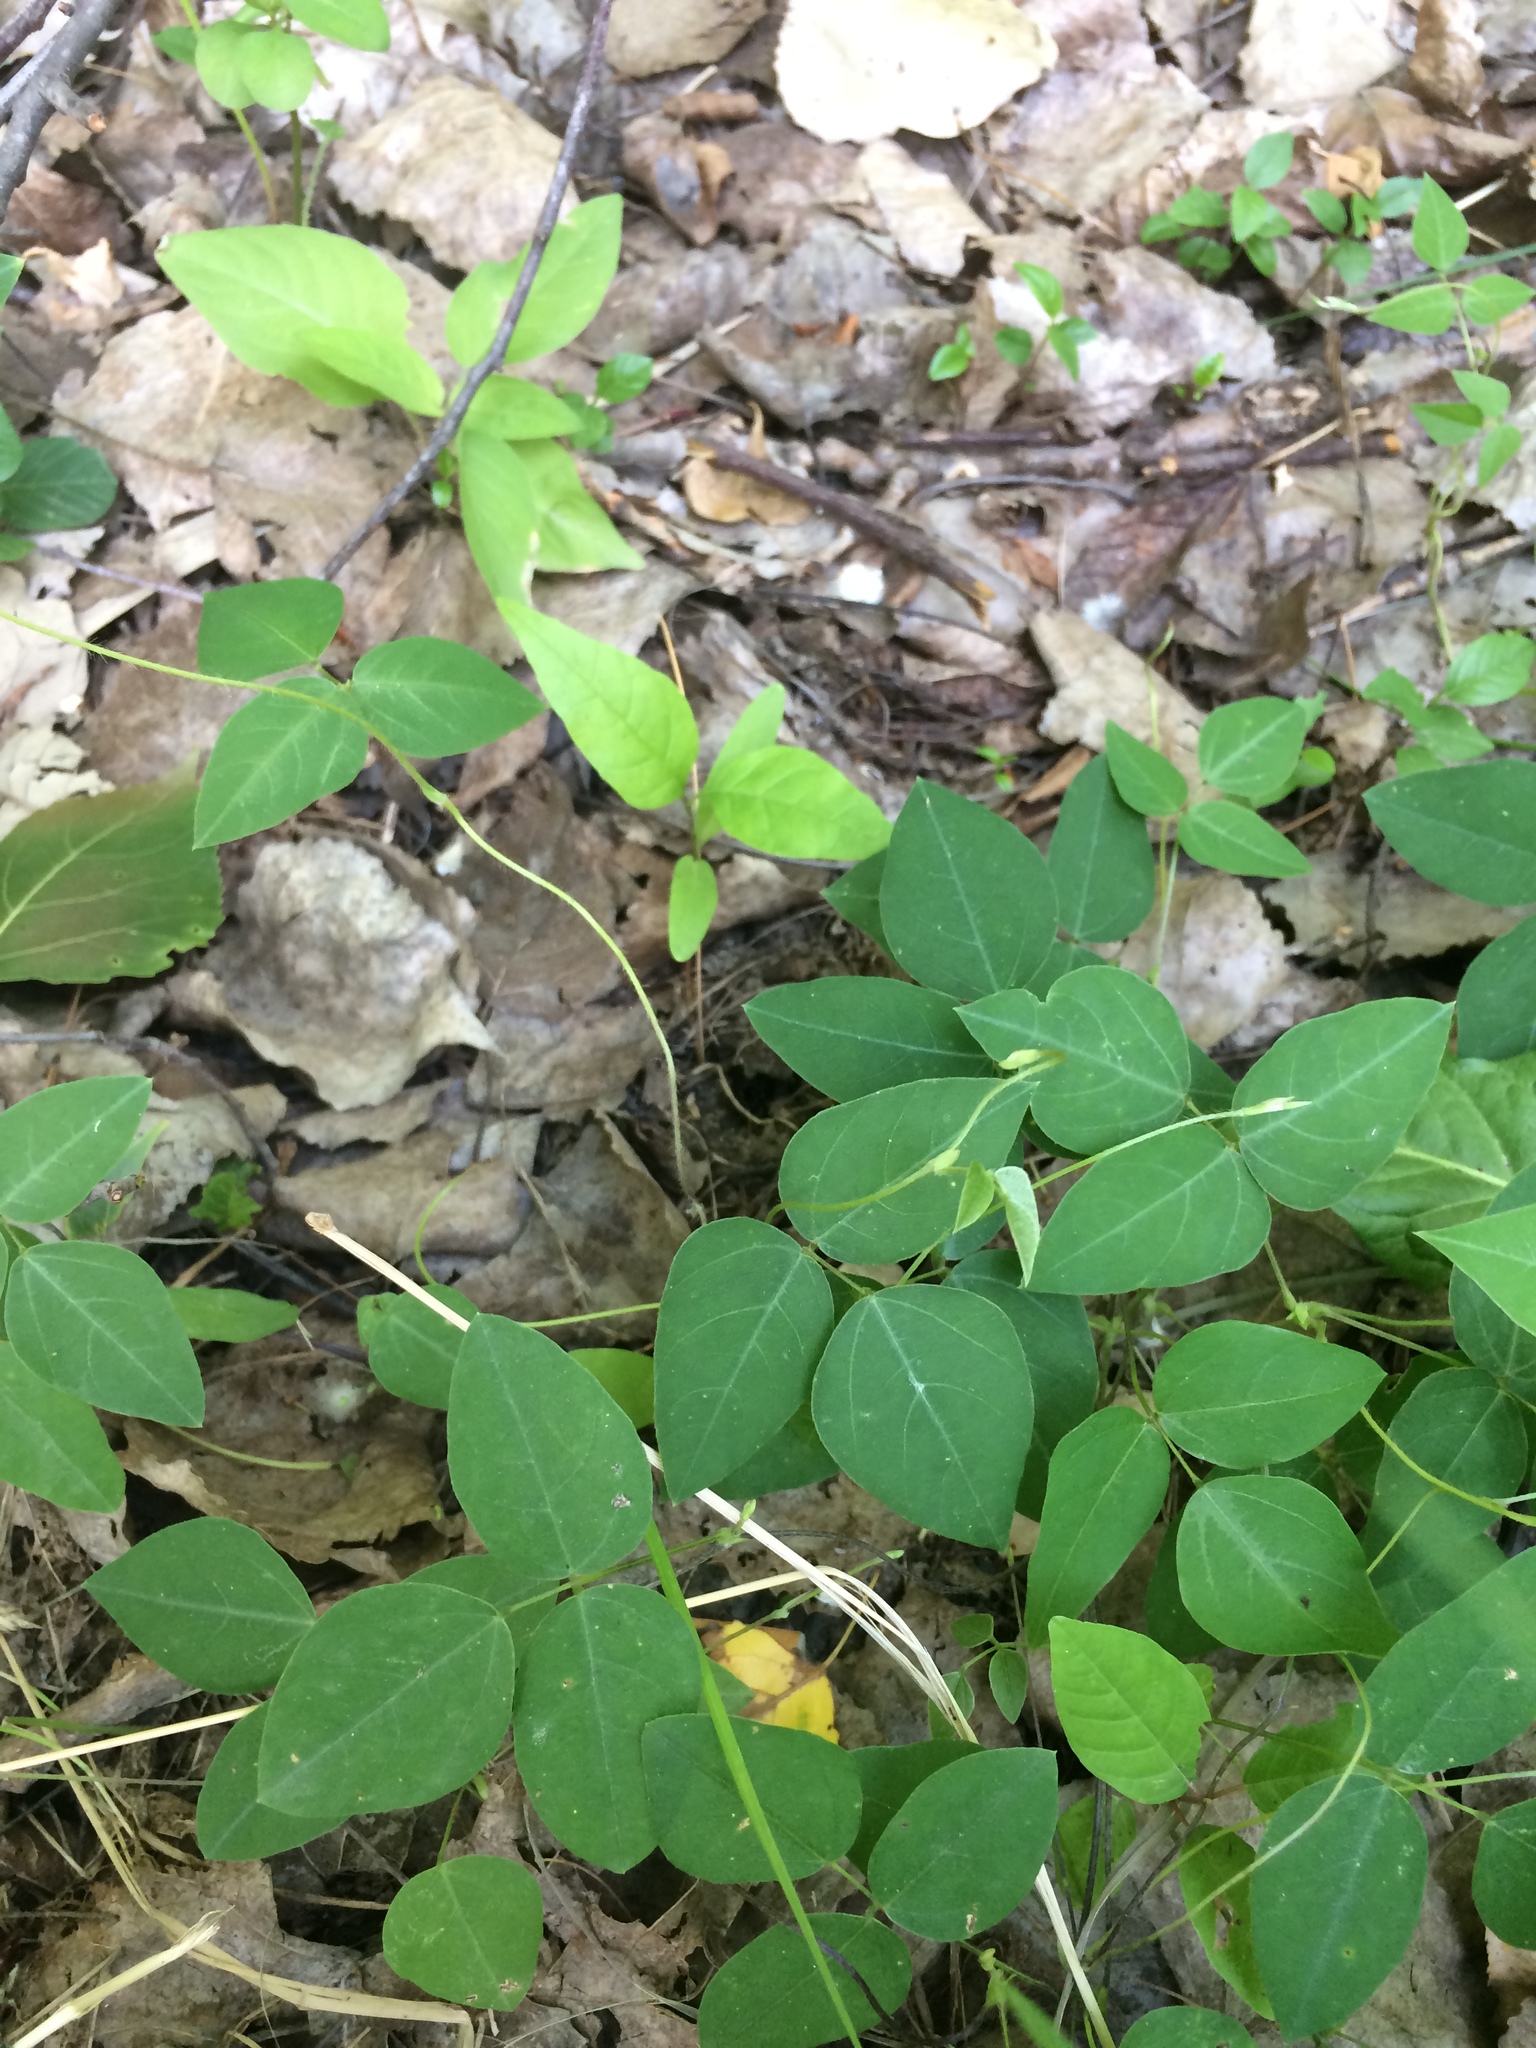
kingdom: Plantae
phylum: Tracheophyta
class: Magnoliopsida
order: Fabales
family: Fabaceae
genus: Amphicarpaea
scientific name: Amphicarpaea bracteata
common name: American hog peanut
